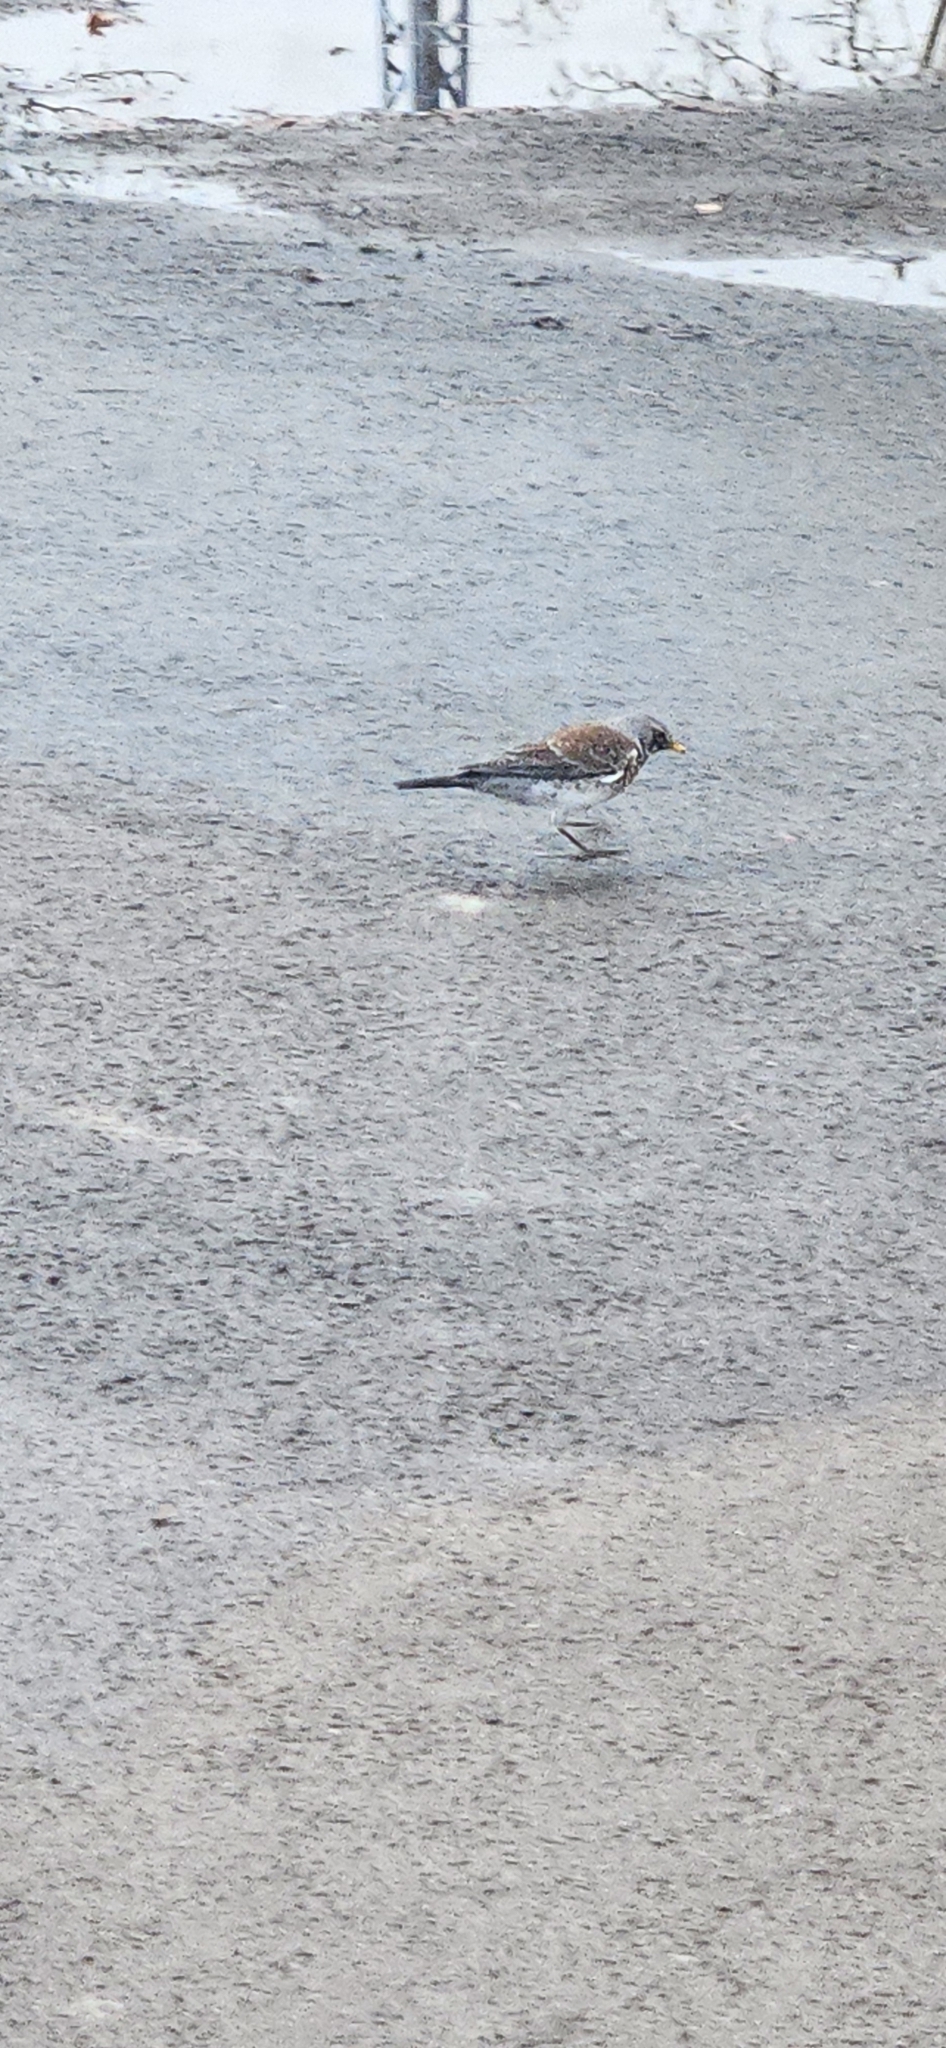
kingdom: Animalia
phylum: Chordata
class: Aves
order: Passeriformes
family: Turdidae
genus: Turdus
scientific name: Turdus pilaris
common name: Fieldfare
